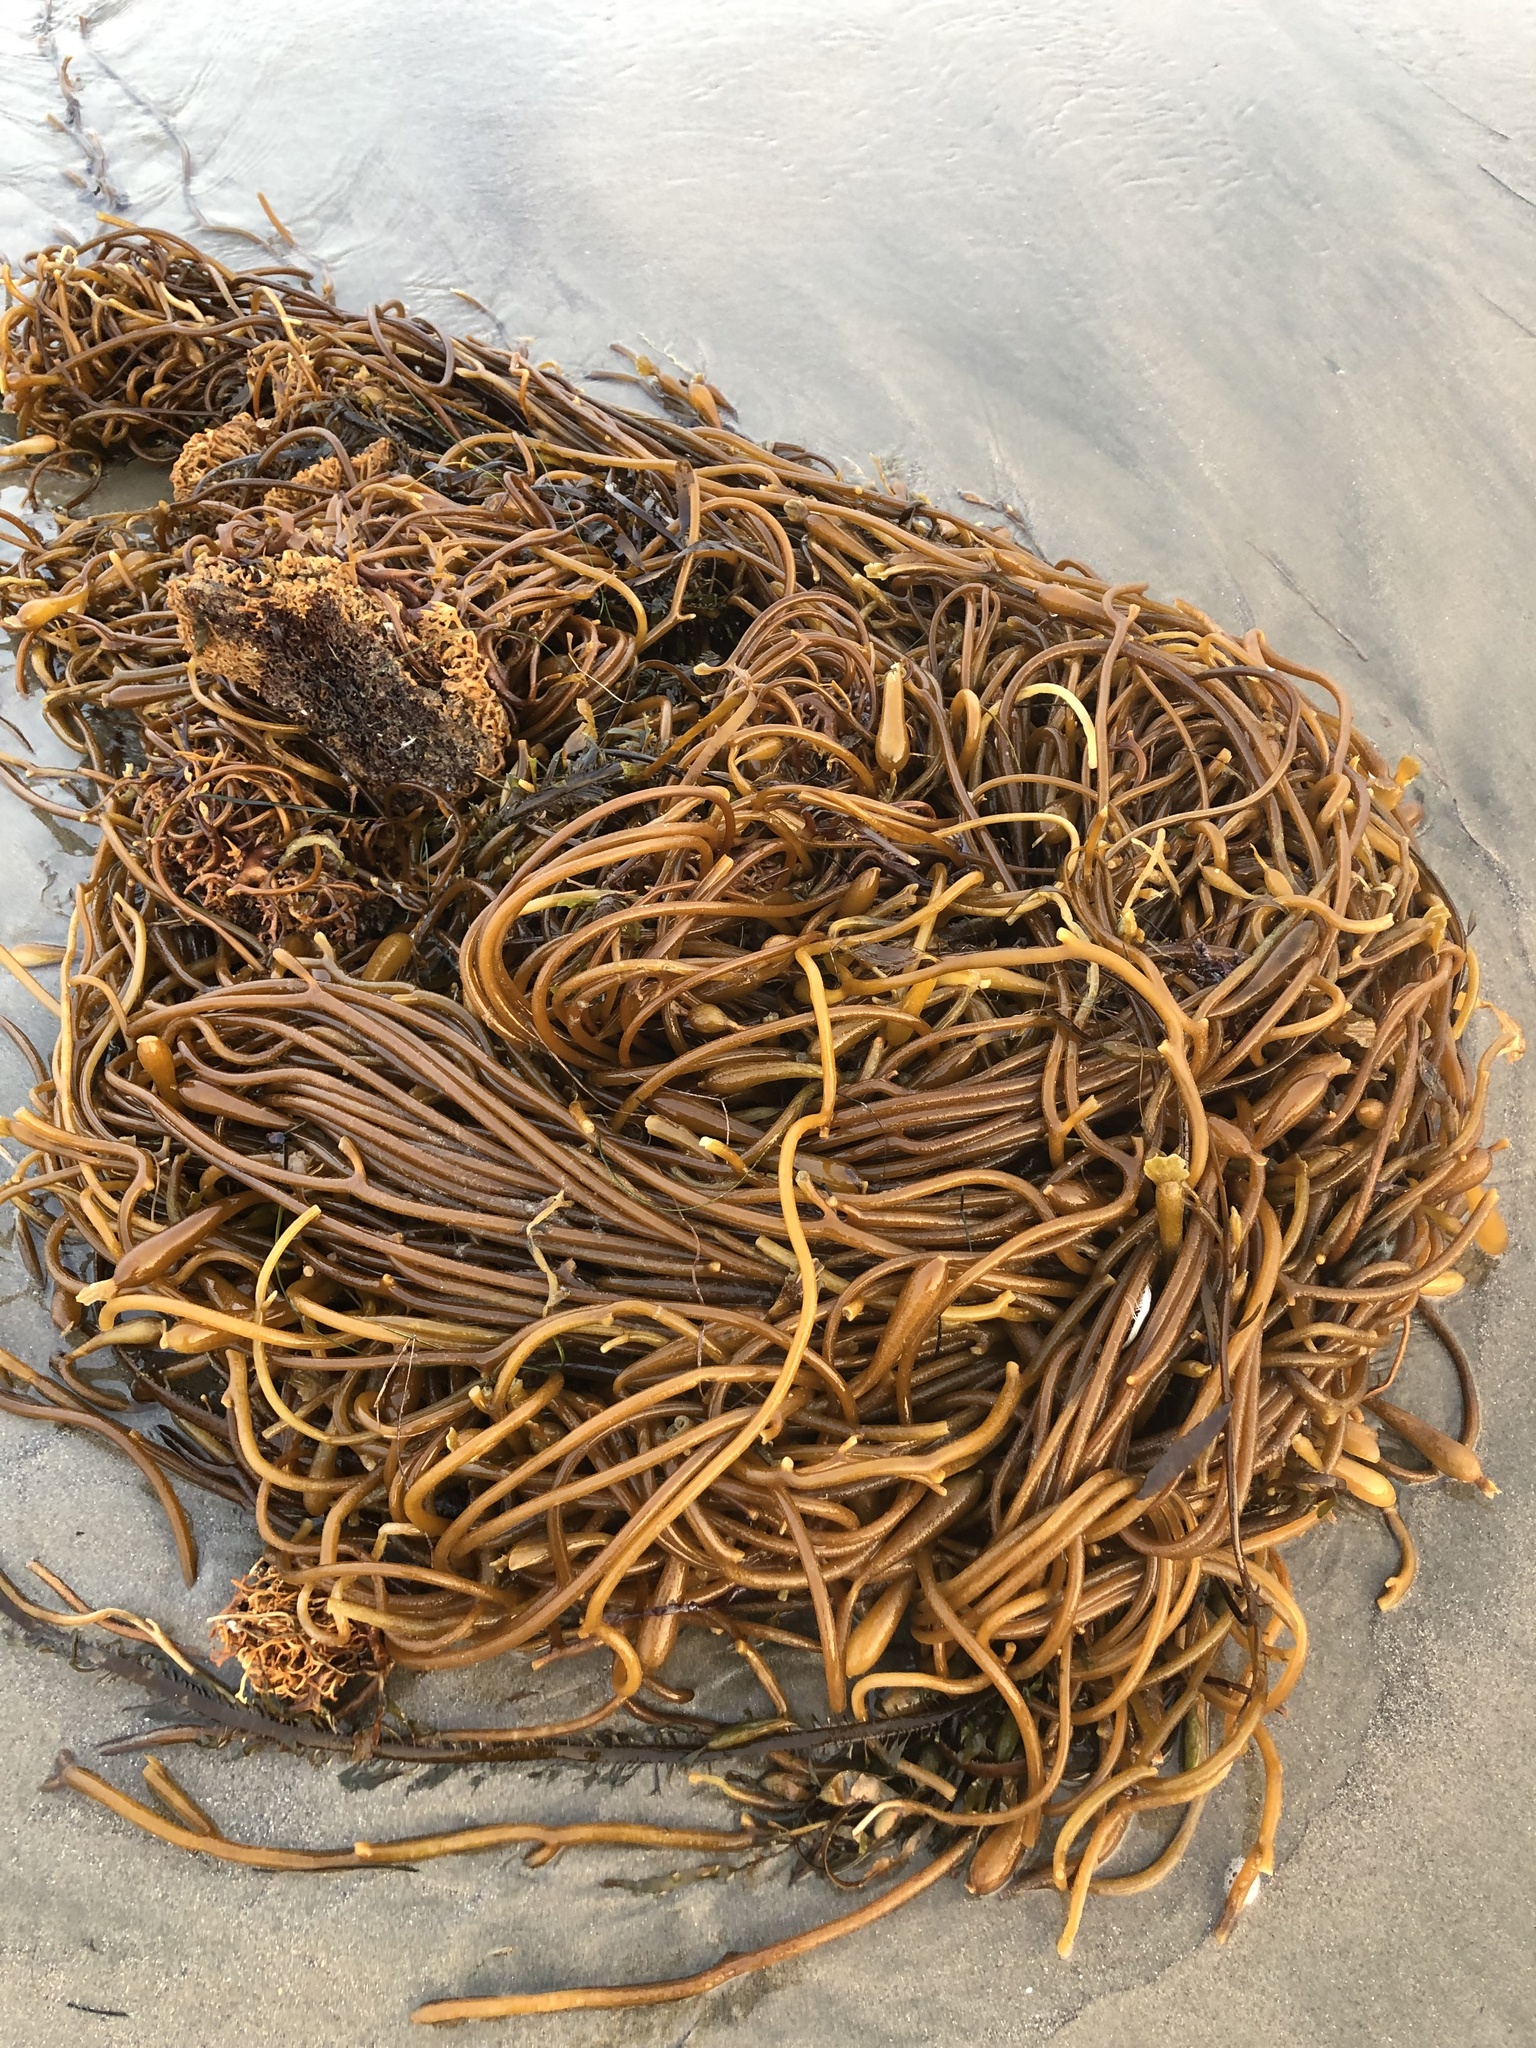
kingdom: Chromista
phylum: Ochrophyta
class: Phaeophyceae
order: Laminariales
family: Laminariaceae
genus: Macrocystis
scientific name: Macrocystis pyrifera
